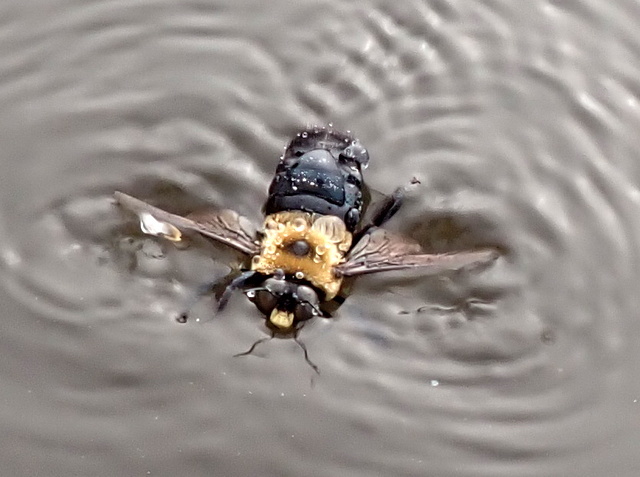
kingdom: Animalia
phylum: Arthropoda
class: Insecta
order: Hymenoptera
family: Apidae
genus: Xylocopa
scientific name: Xylocopa virginica
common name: Carpenter bee
